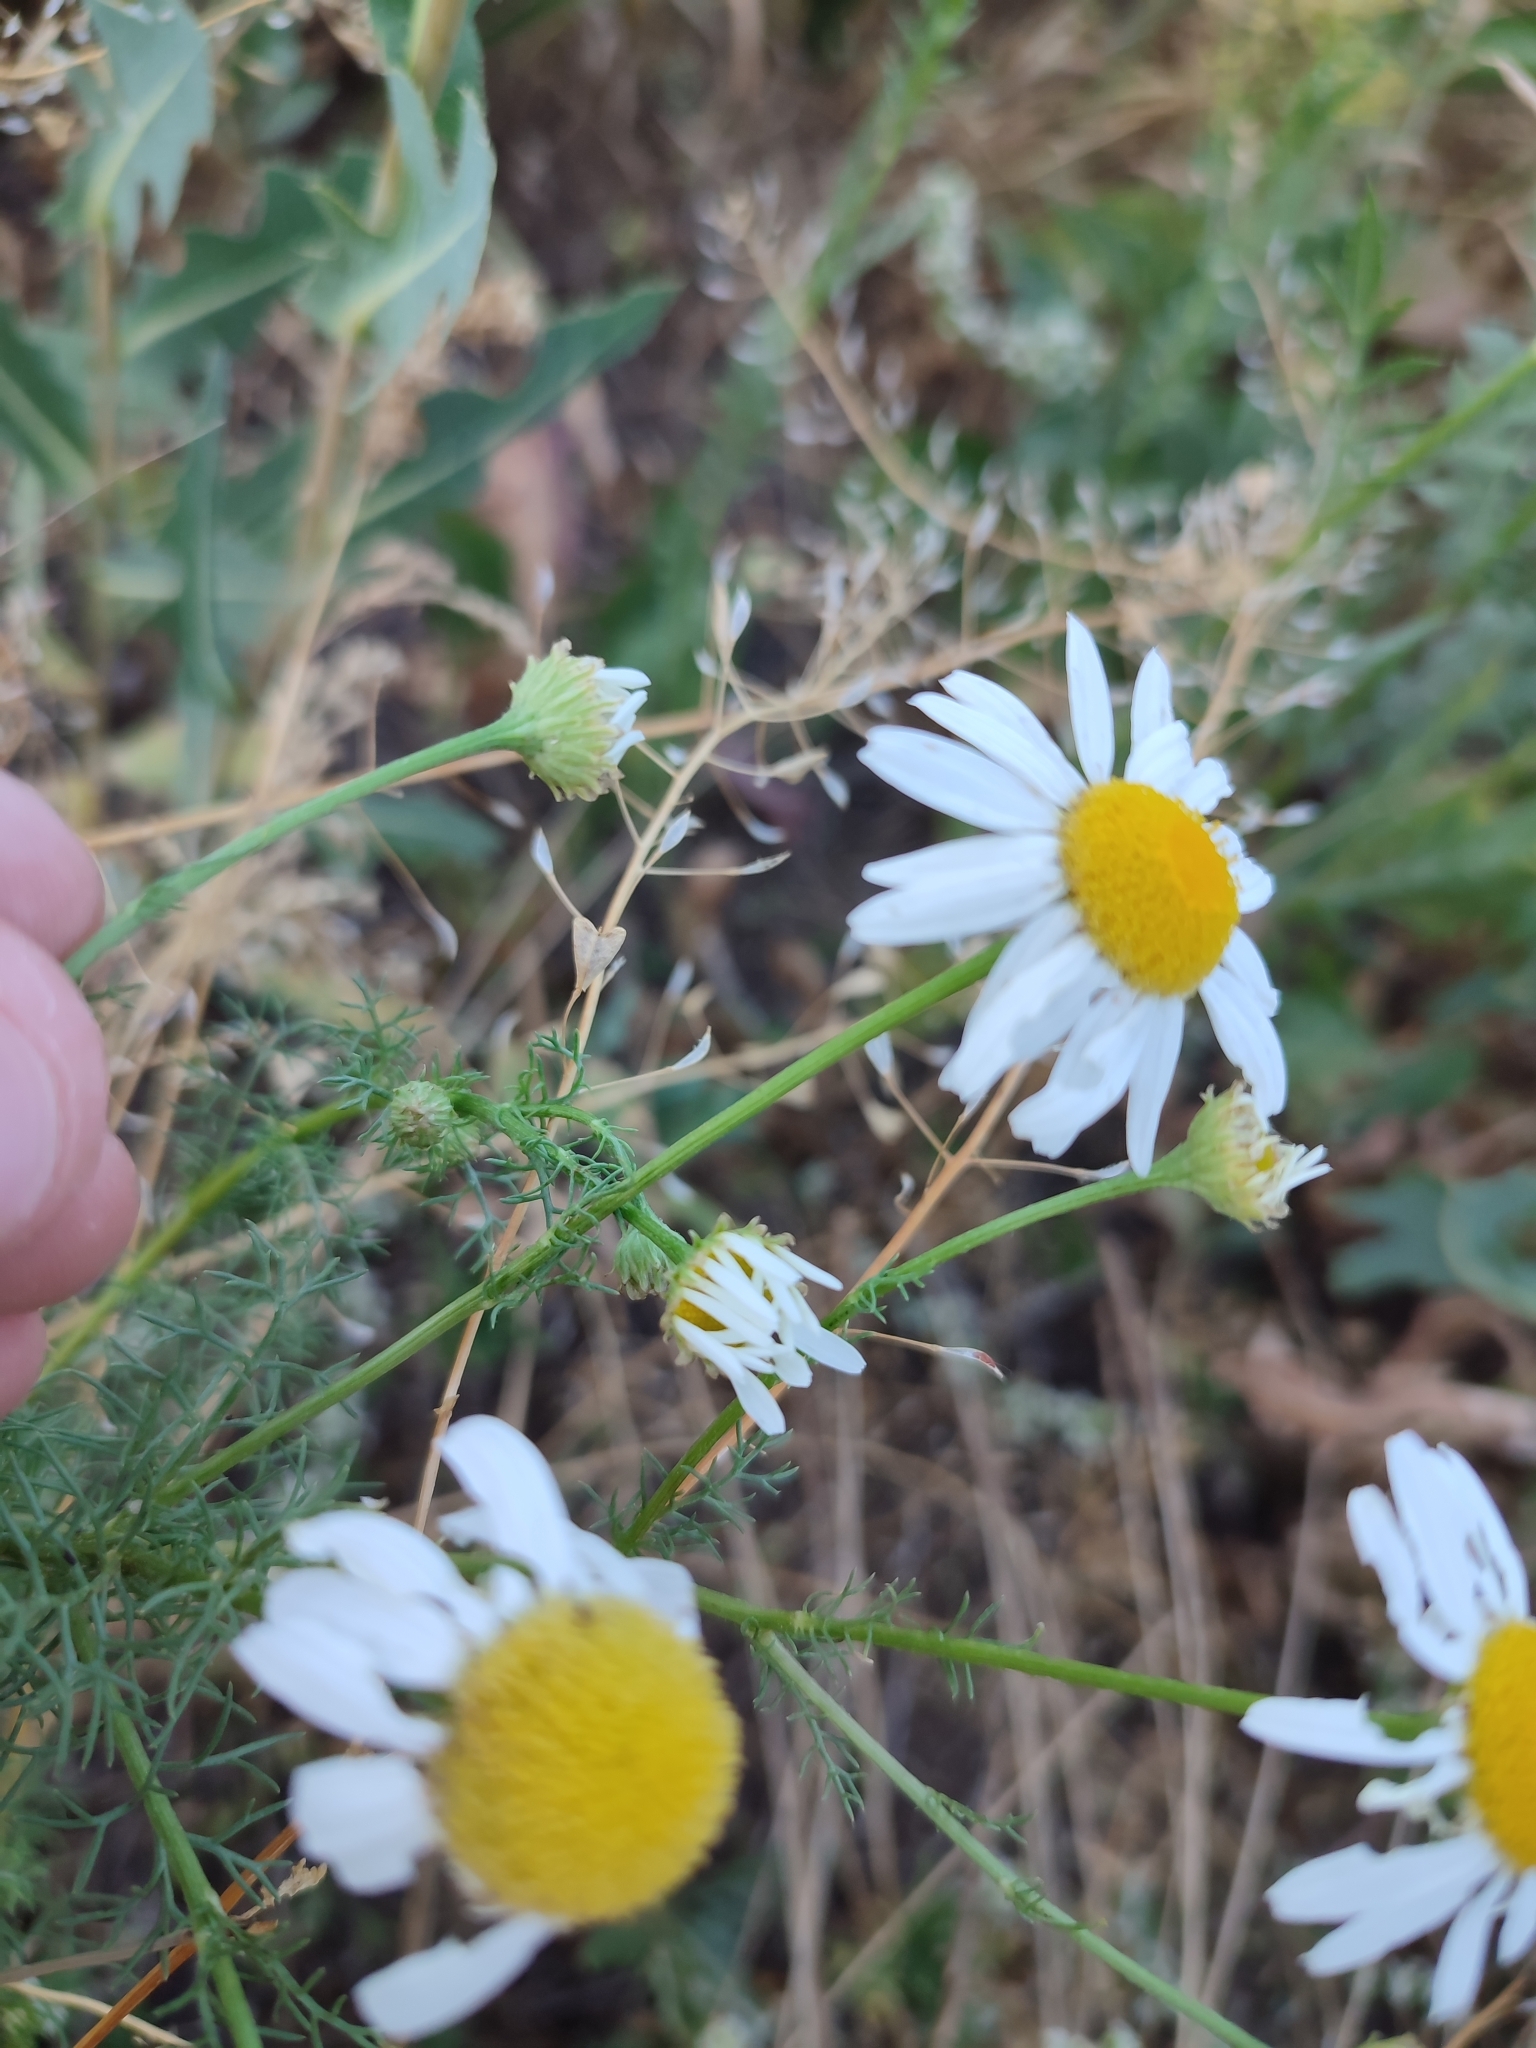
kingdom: Plantae
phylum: Tracheophyta
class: Magnoliopsida
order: Asterales
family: Asteraceae
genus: Tripleurospermum
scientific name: Tripleurospermum inodorum
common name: Scentless mayweed
